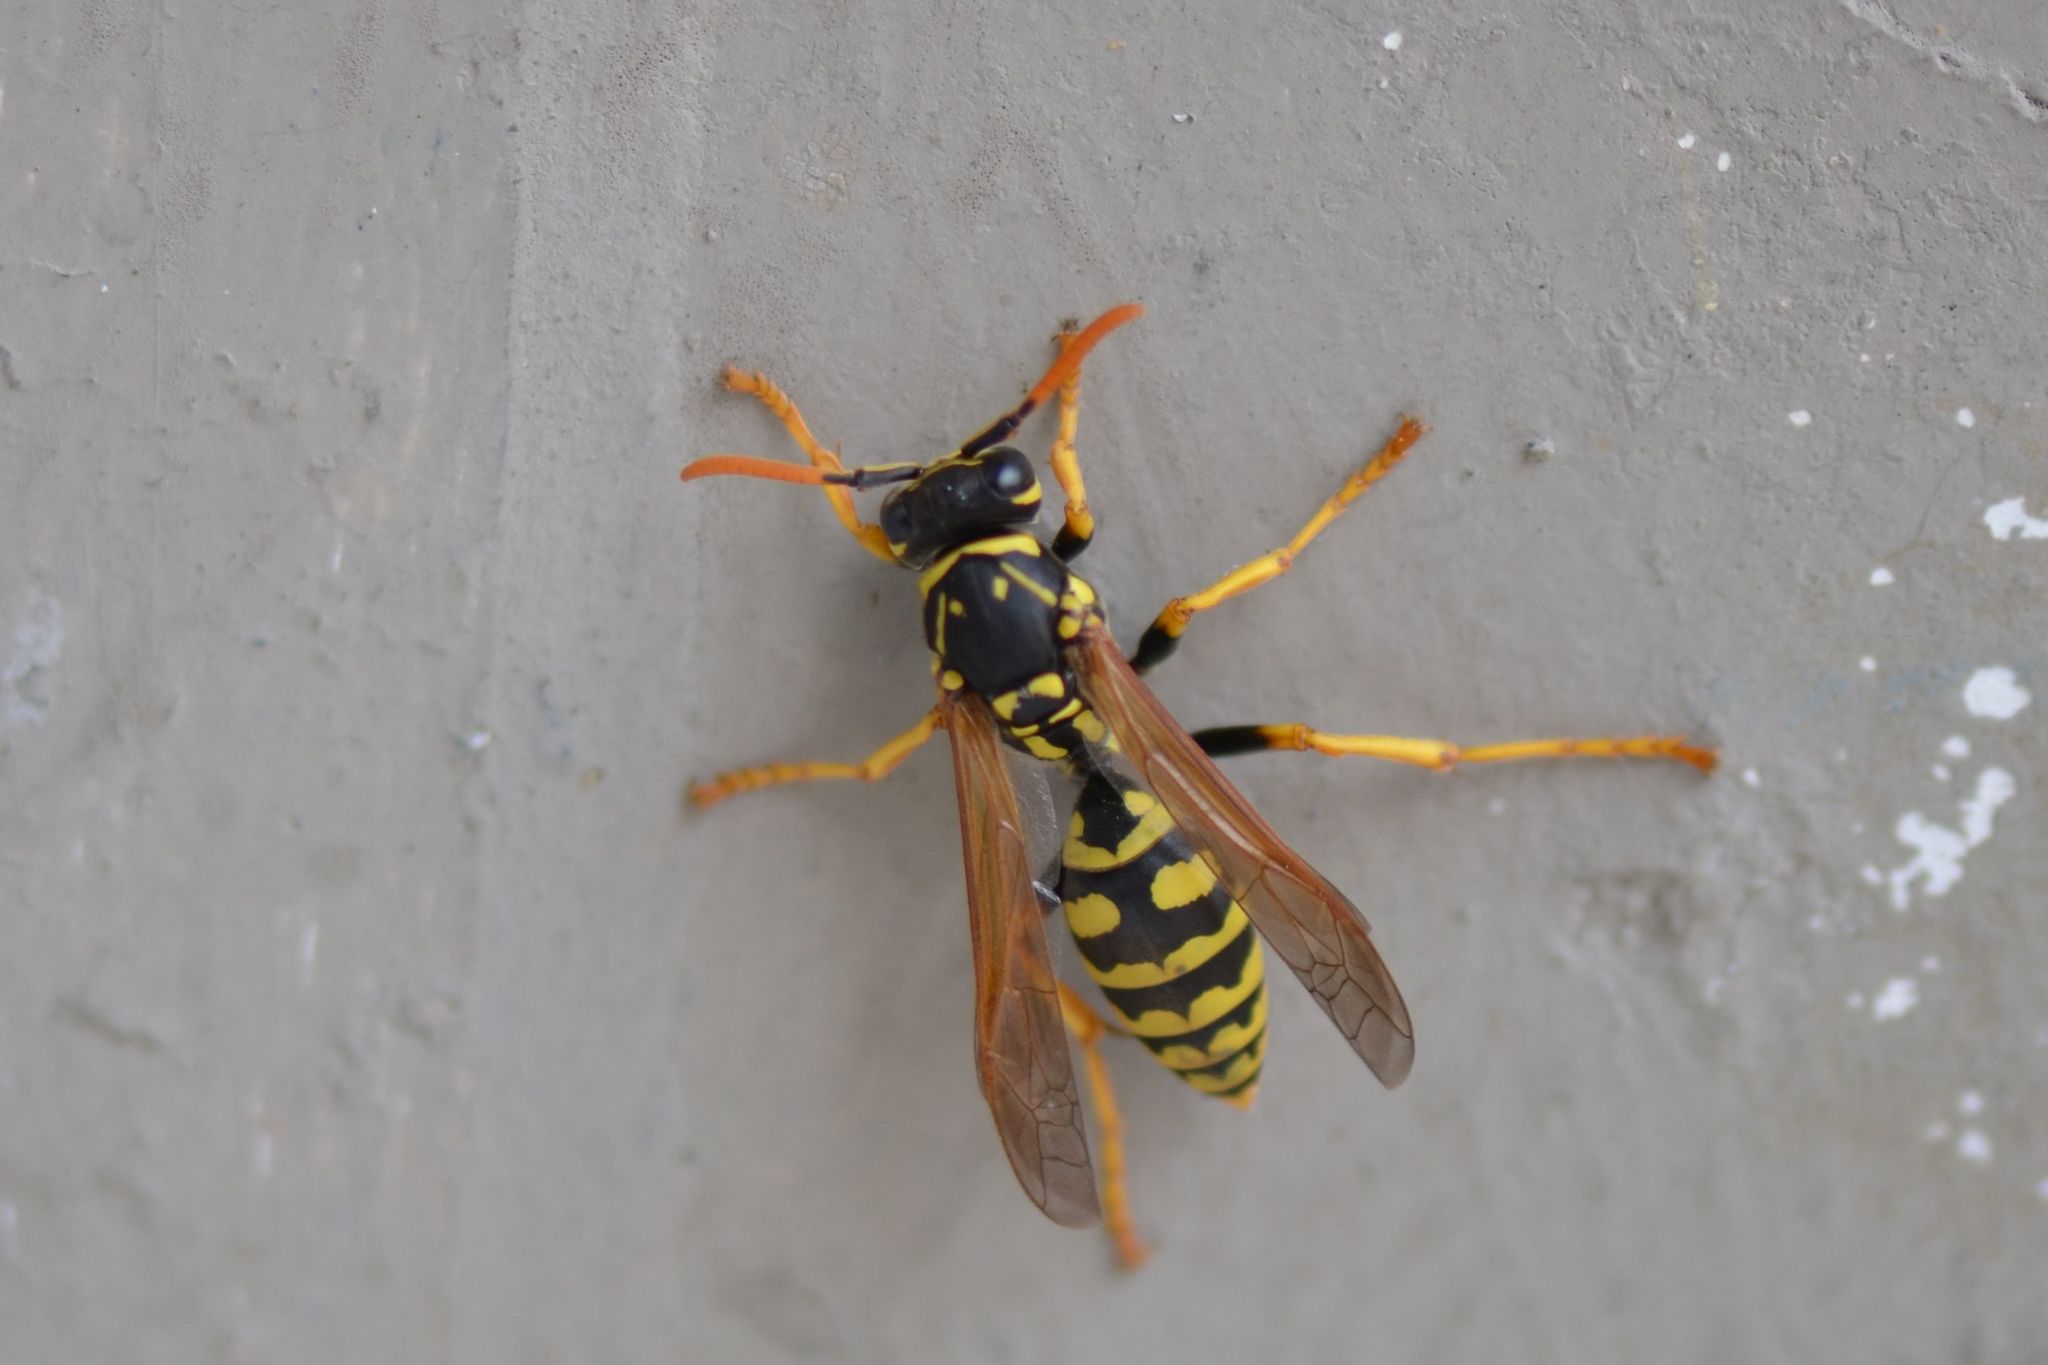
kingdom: Animalia
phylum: Arthropoda
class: Insecta
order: Hymenoptera
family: Eumenidae
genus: Polistes
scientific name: Polistes dominula
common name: Paper wasp
